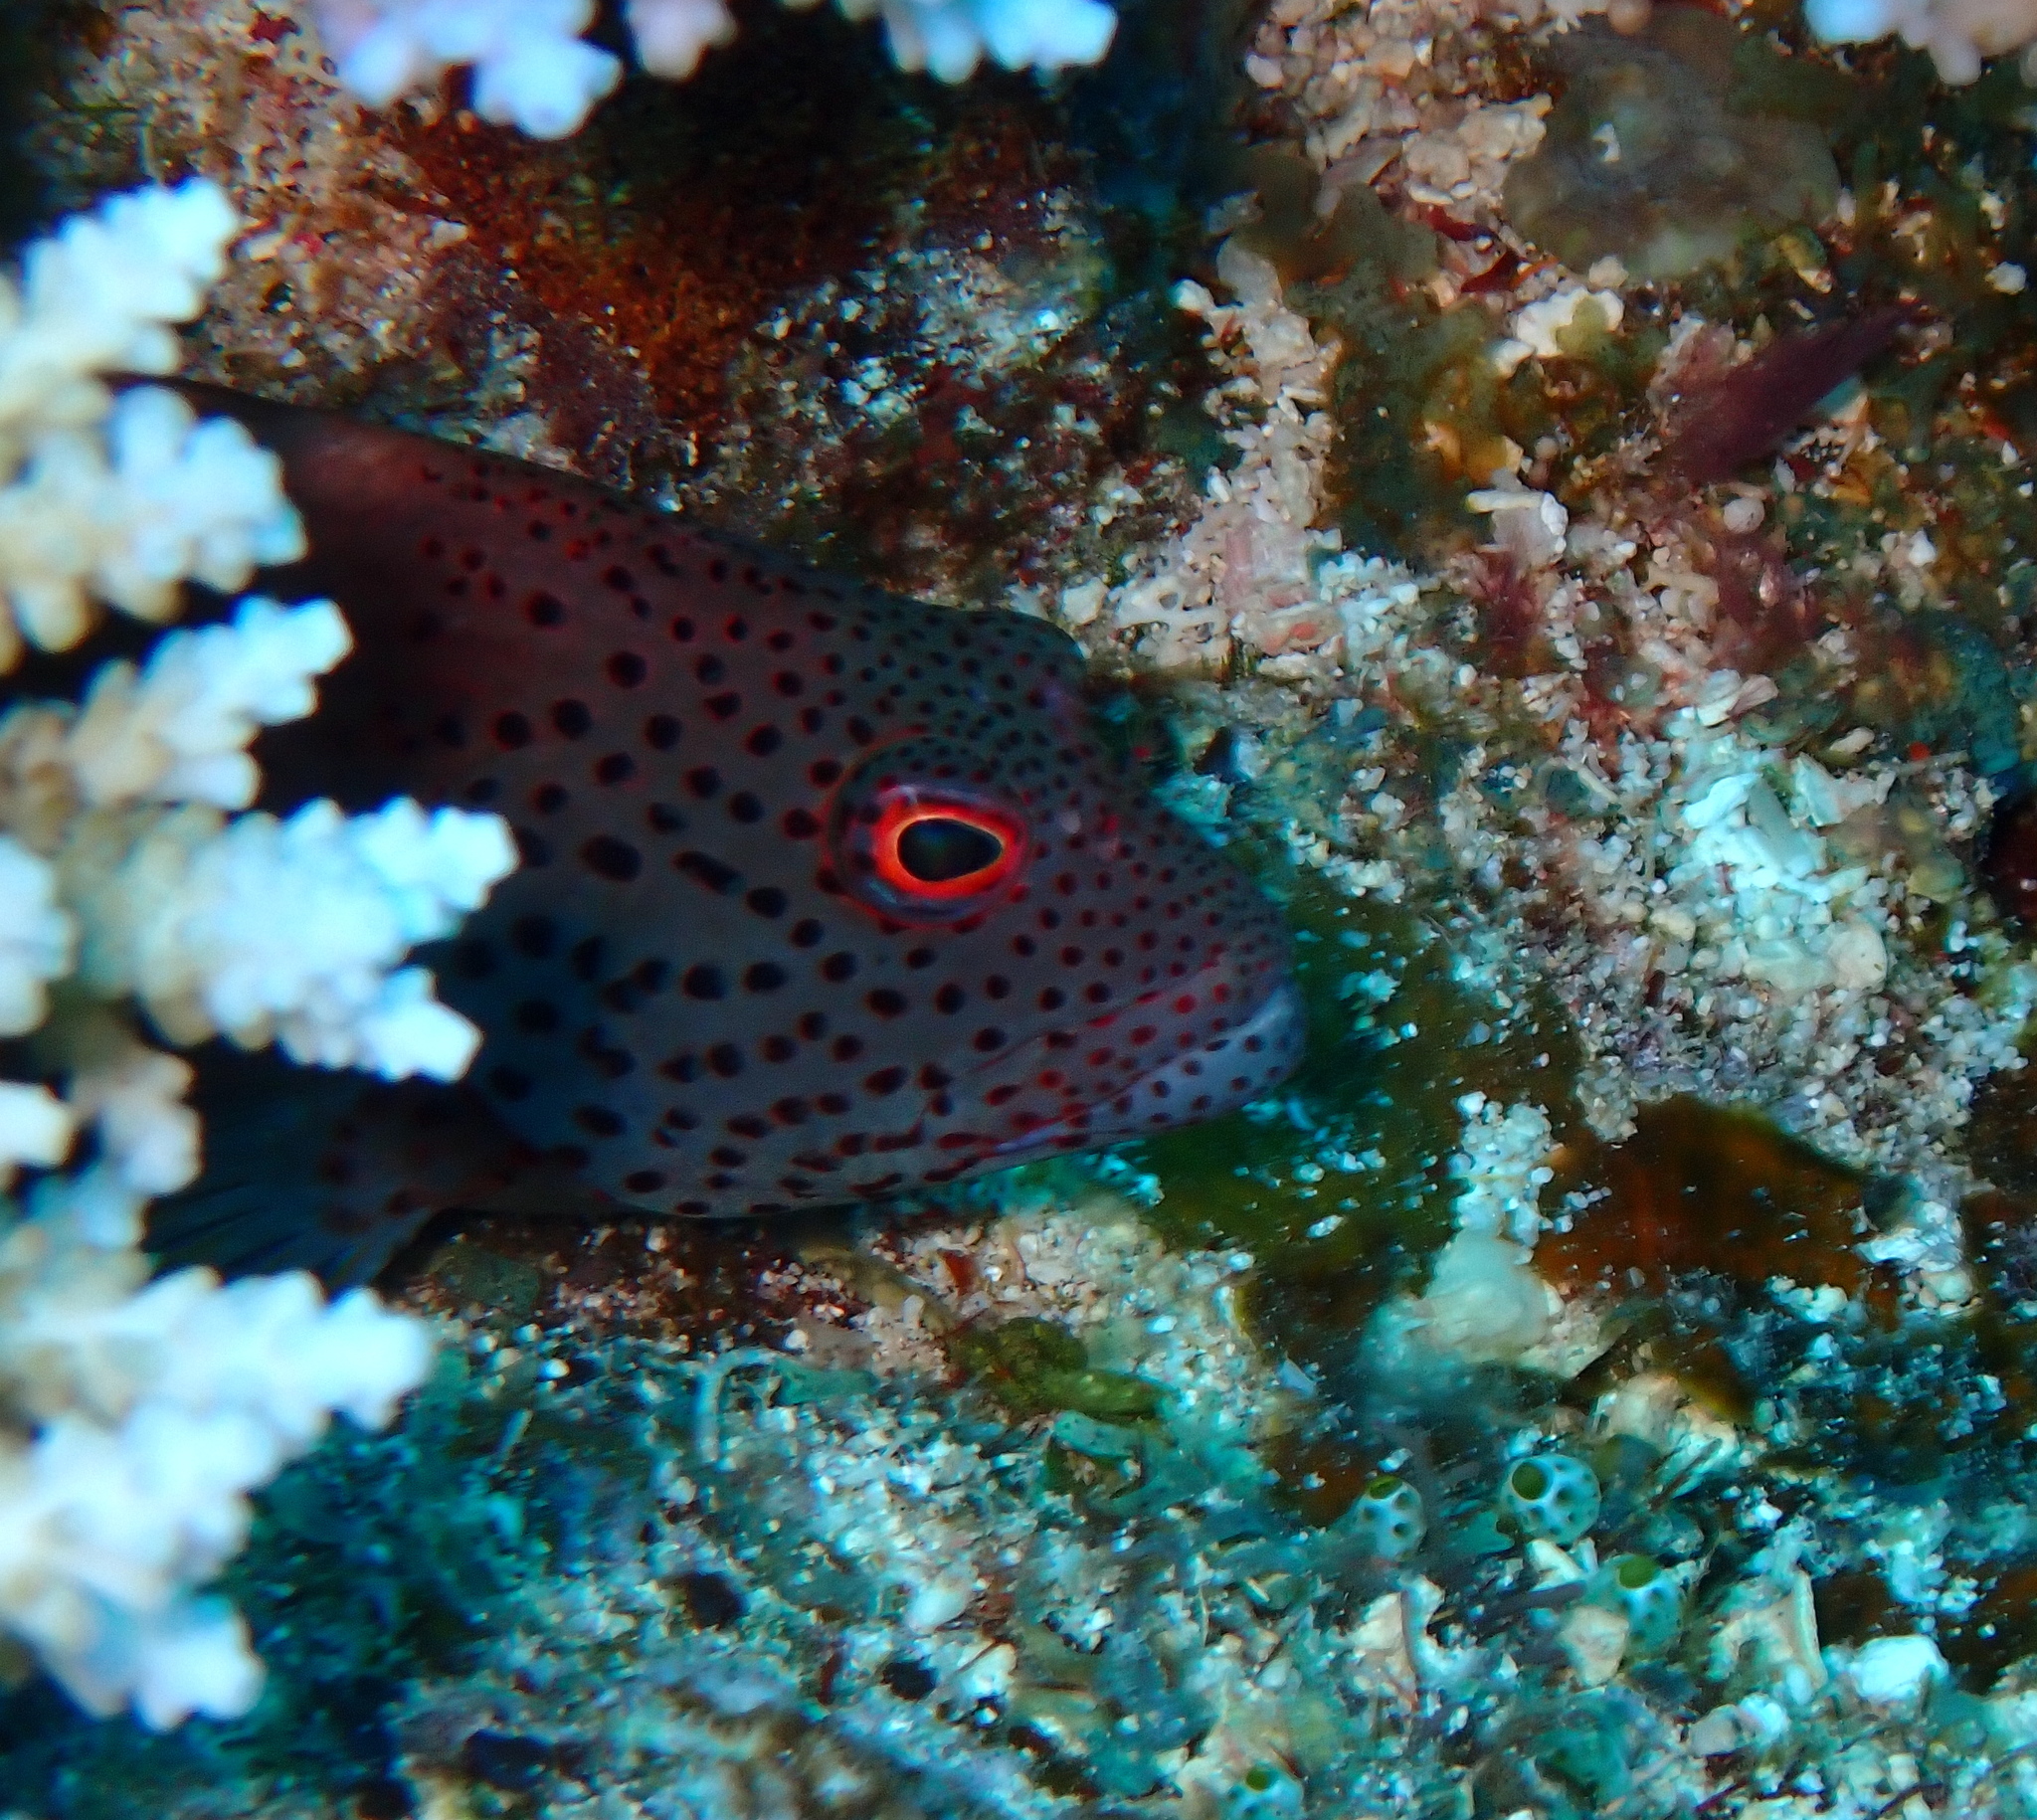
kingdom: Animalia
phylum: Chordata
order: Perciformes
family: Cirrhitidae
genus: Paracirrhites
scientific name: Paracirrhites forsteri
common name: Freckled hawkfish
